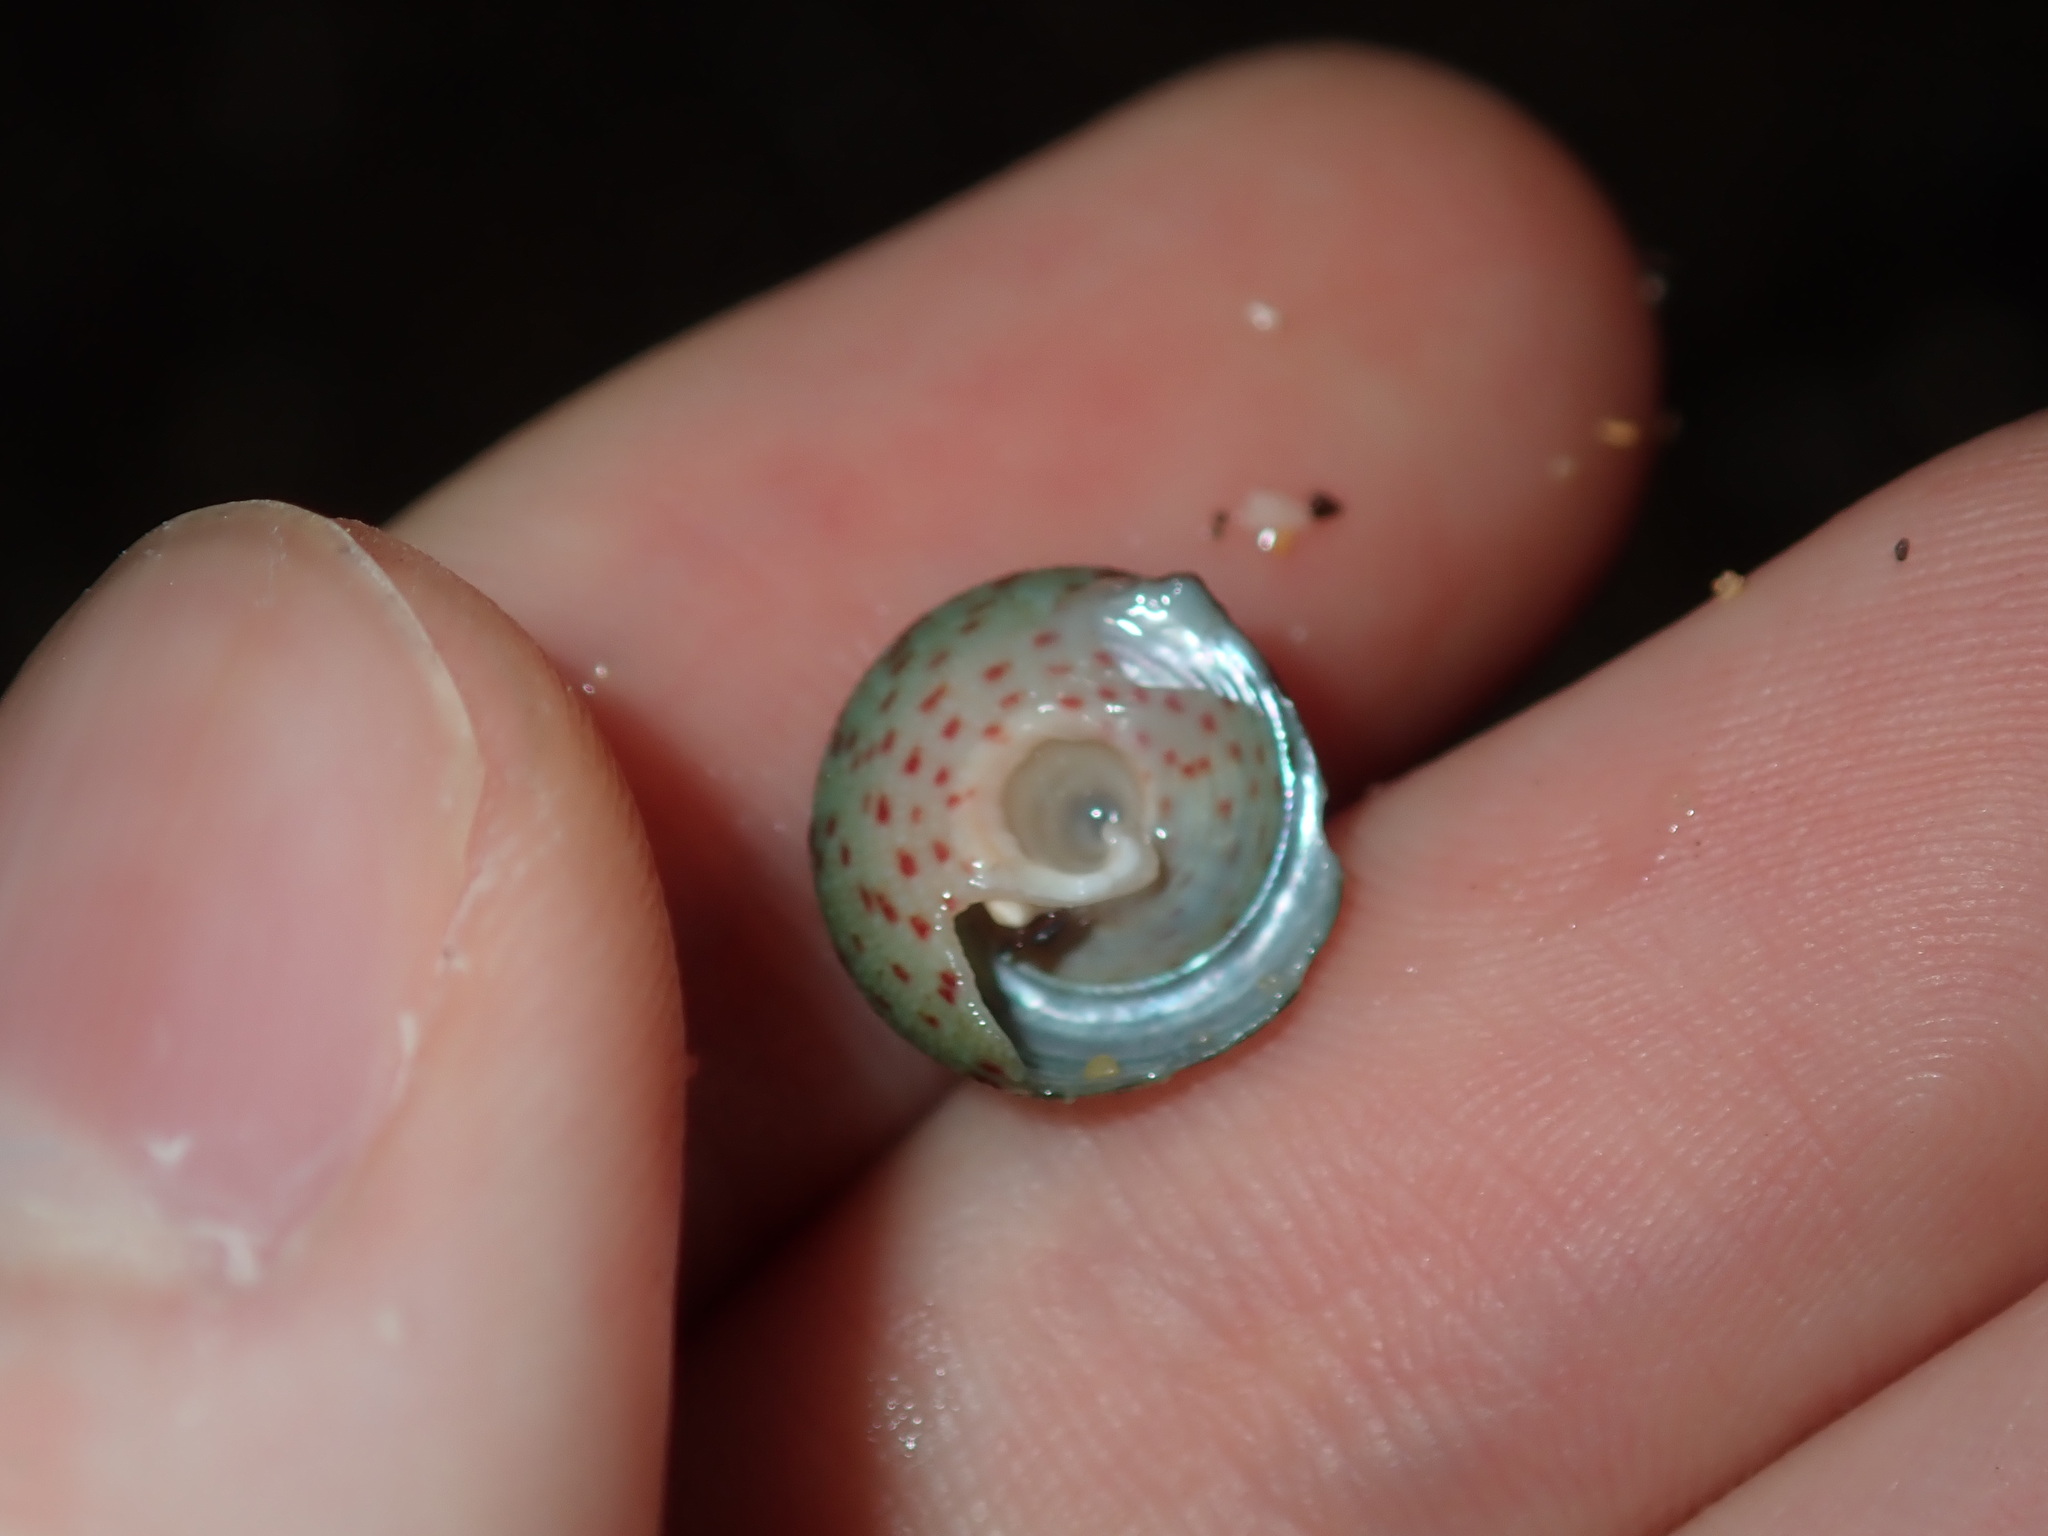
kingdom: Animalia
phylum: Mollusca
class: Gastropoda
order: Trochida
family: Trochidae
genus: Clanculus
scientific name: Clanculus clangulus
